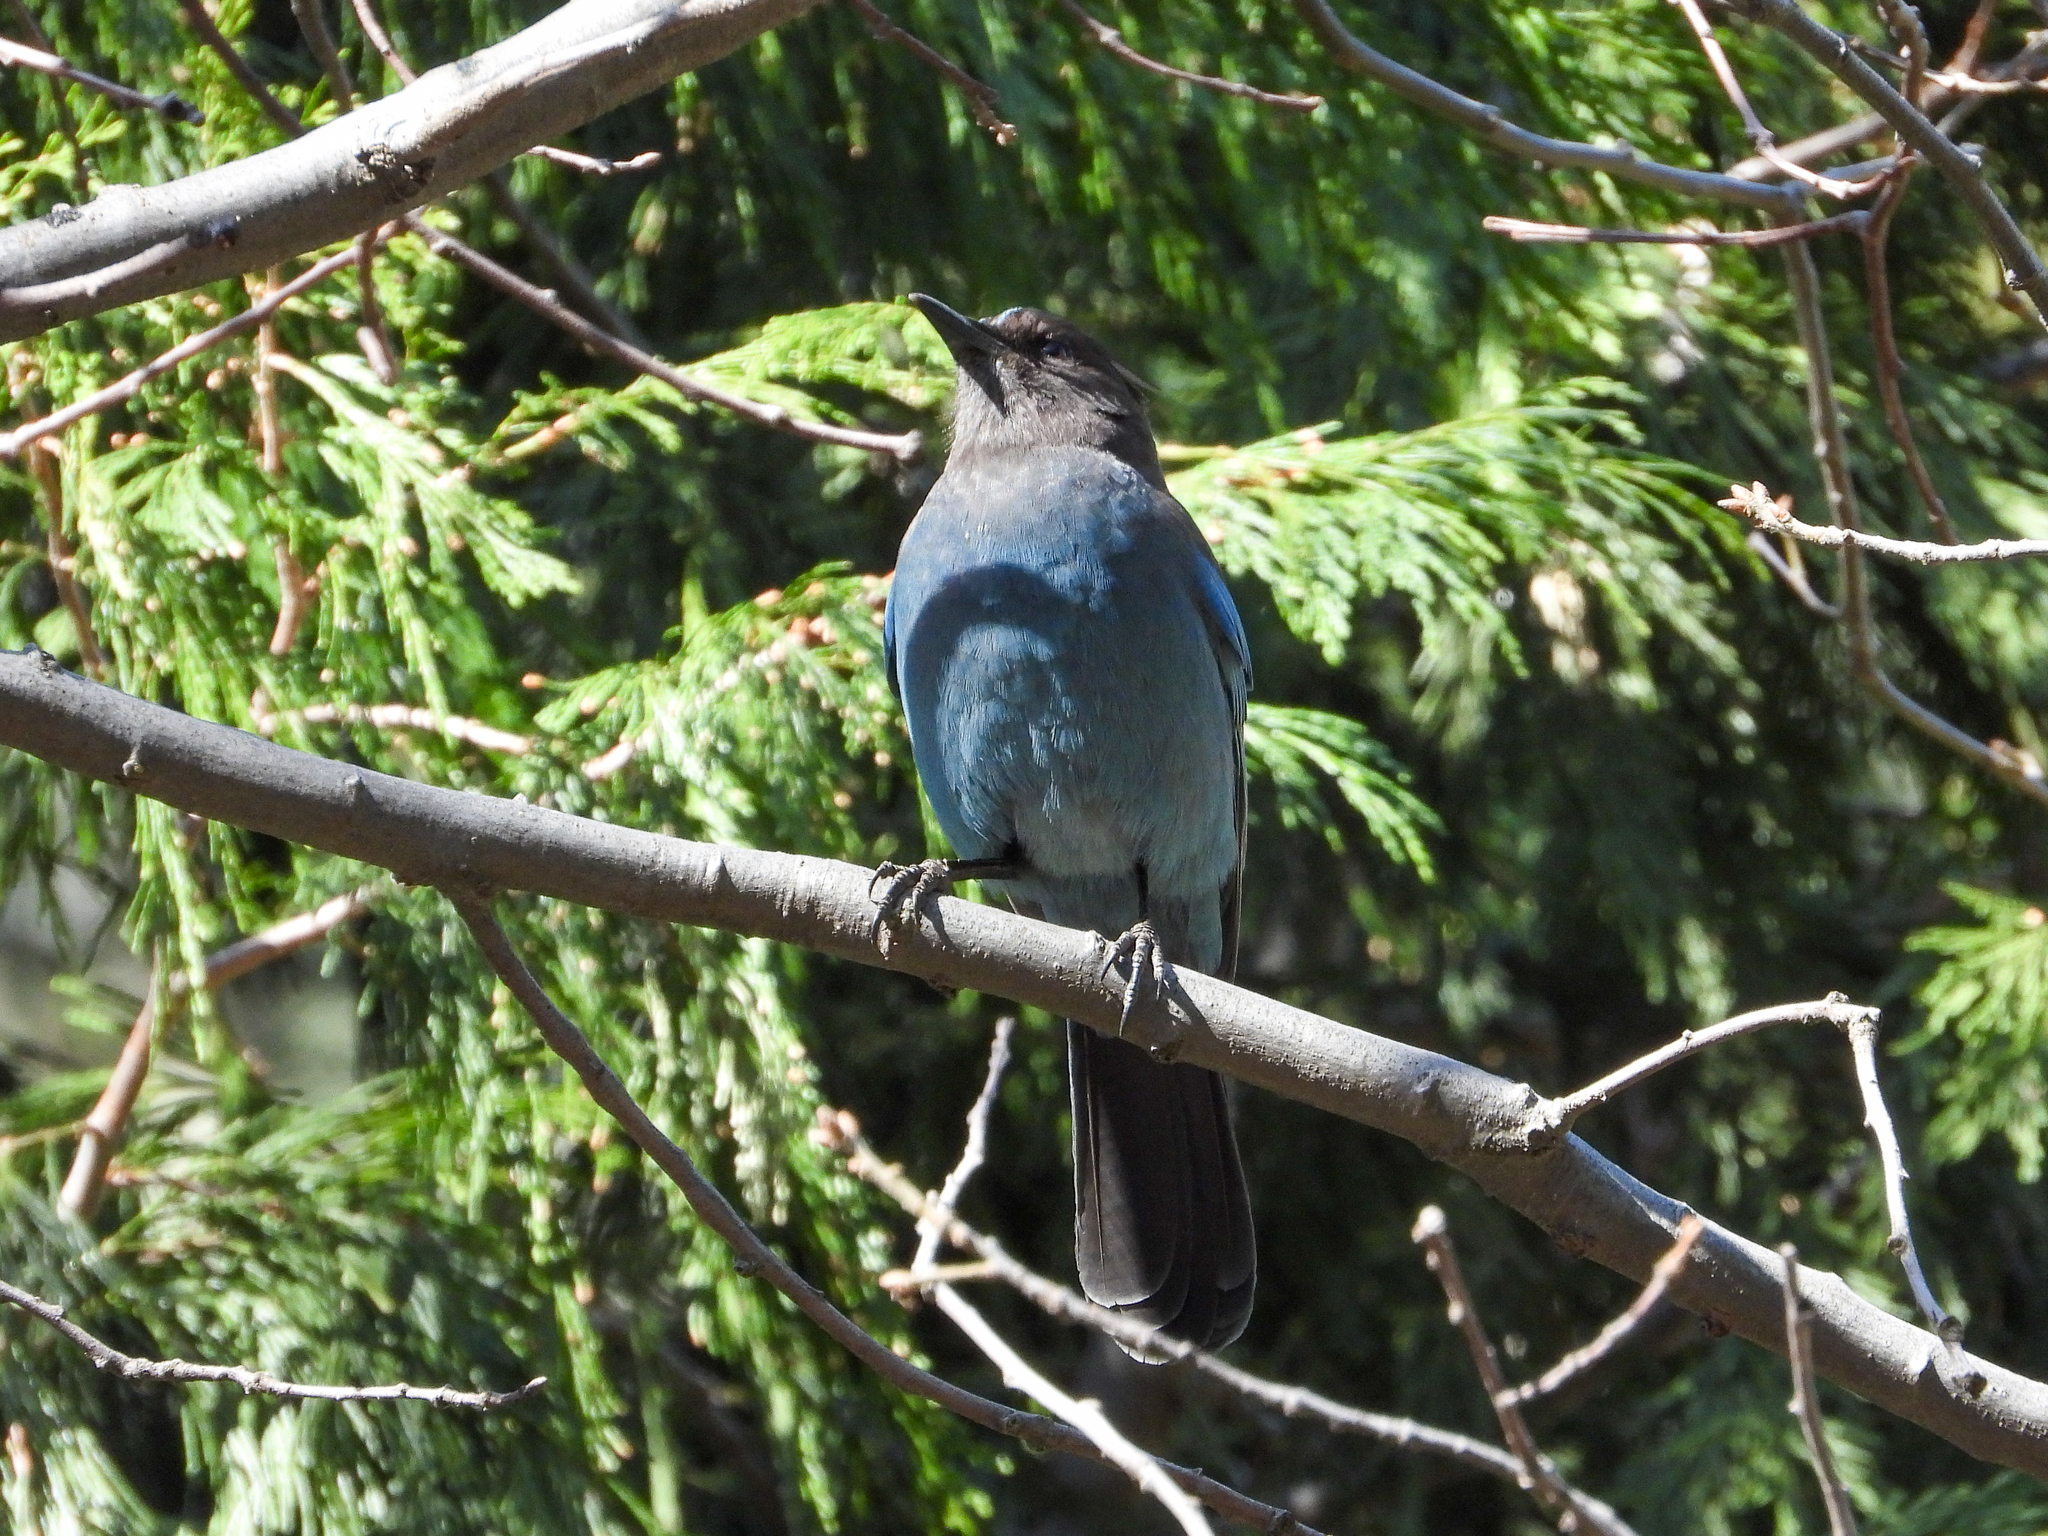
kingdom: Animalia
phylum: Chordata
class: Aves
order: Passeriformes
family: Corvidae
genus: Cyanocitta
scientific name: Cyanocitta stelleri
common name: Steller's jay
